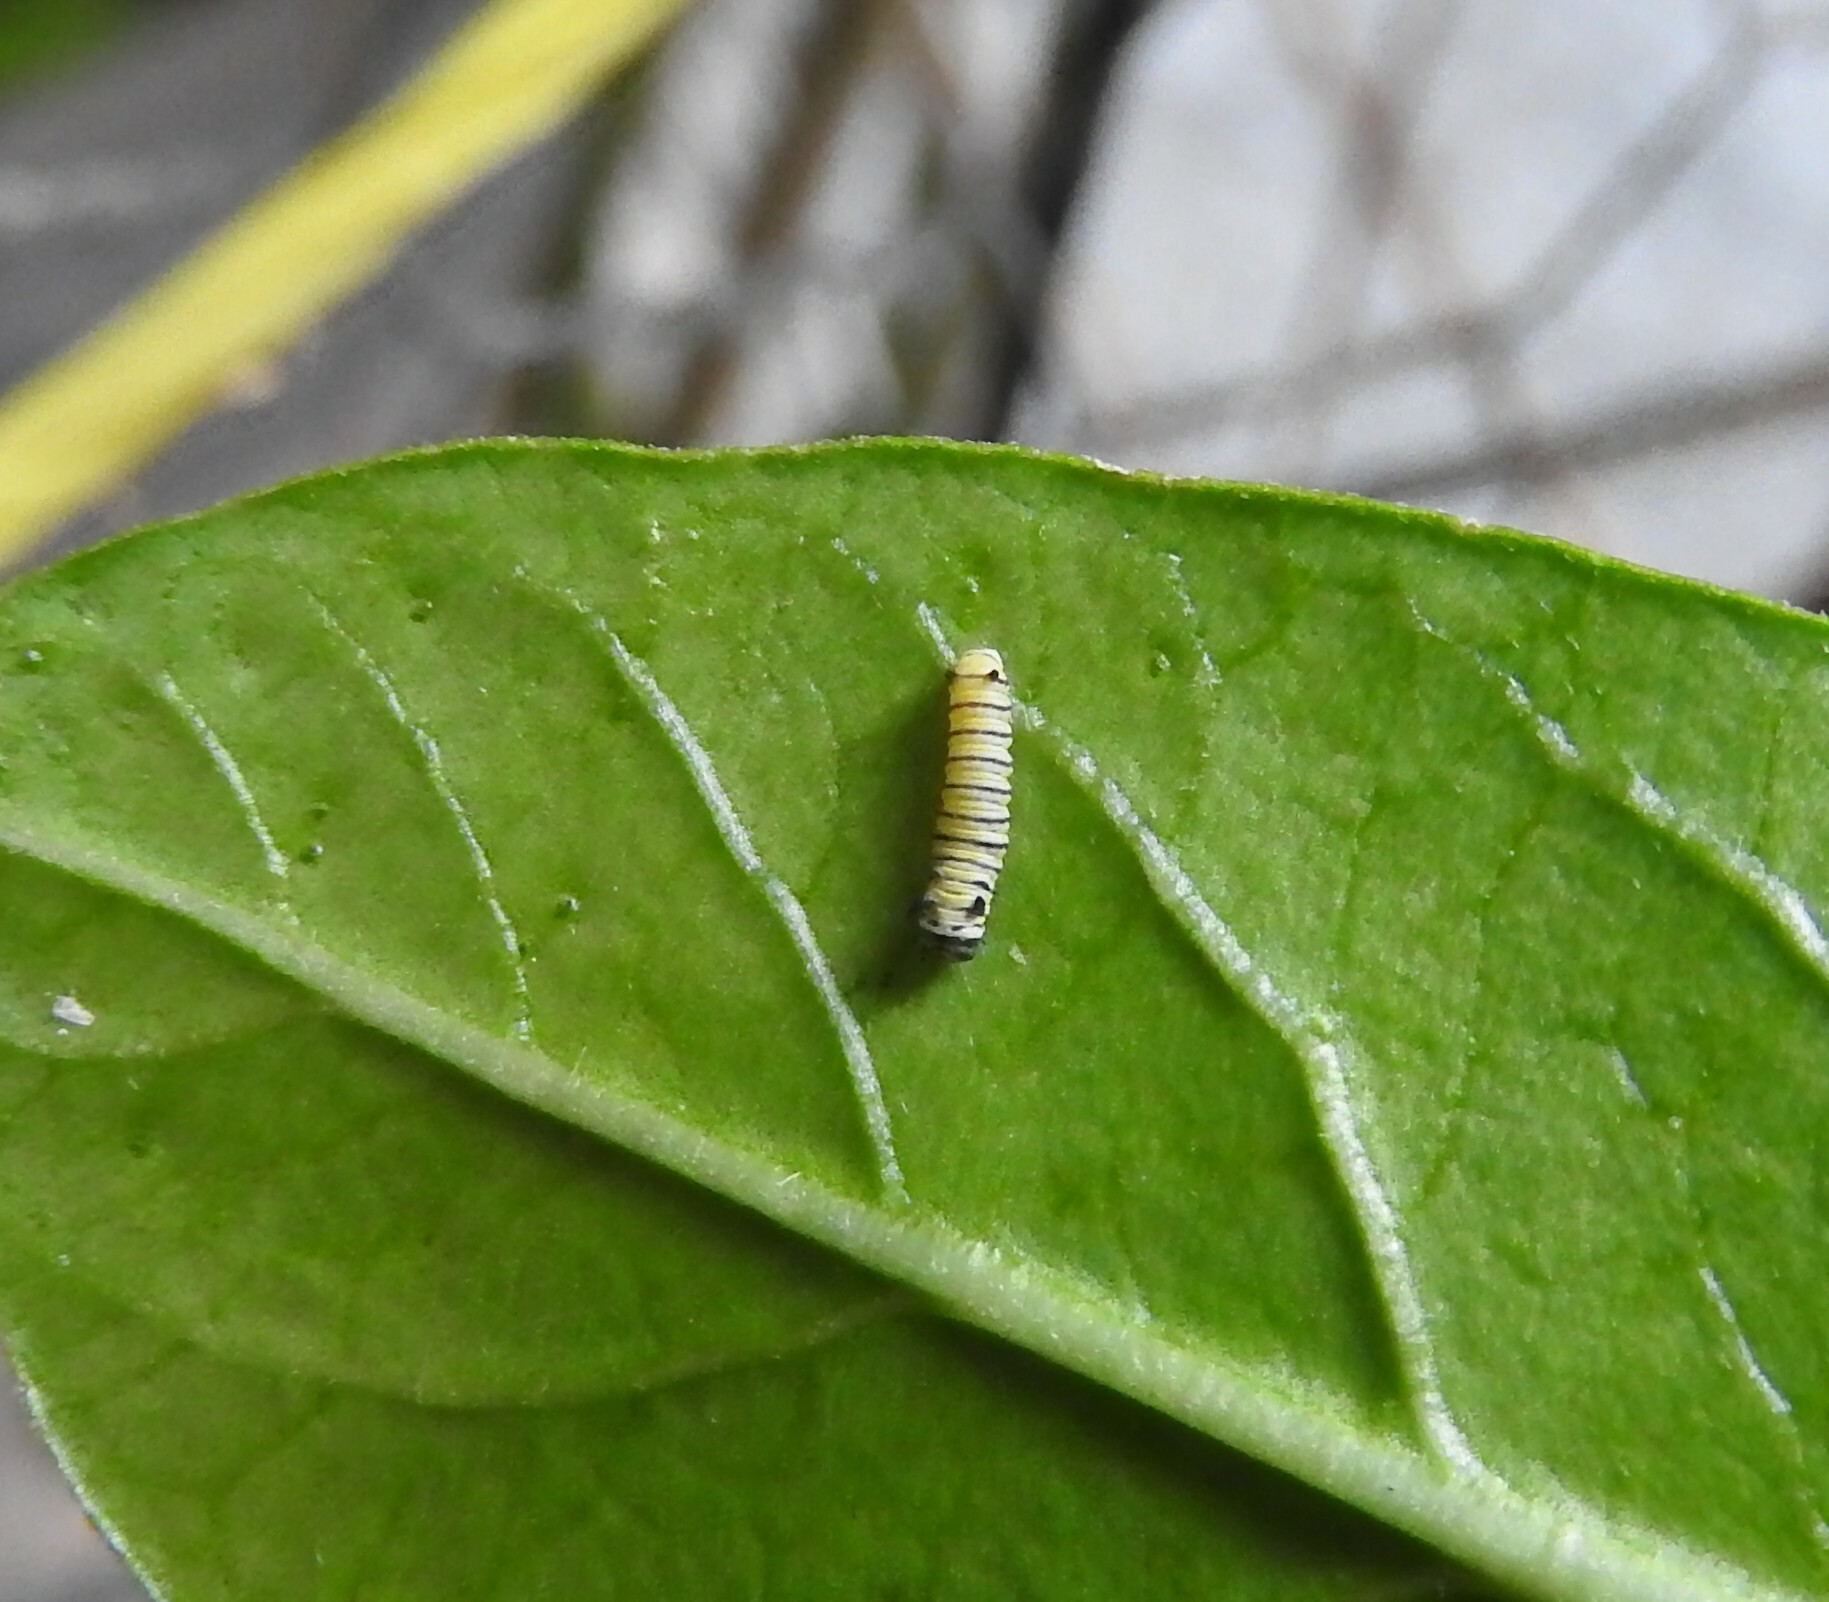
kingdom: Animalia
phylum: Arthropoda
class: Insecta
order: Lepidoptera
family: Nymphalidae
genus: Danaus
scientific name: Danaus plexippus
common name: Monarch
